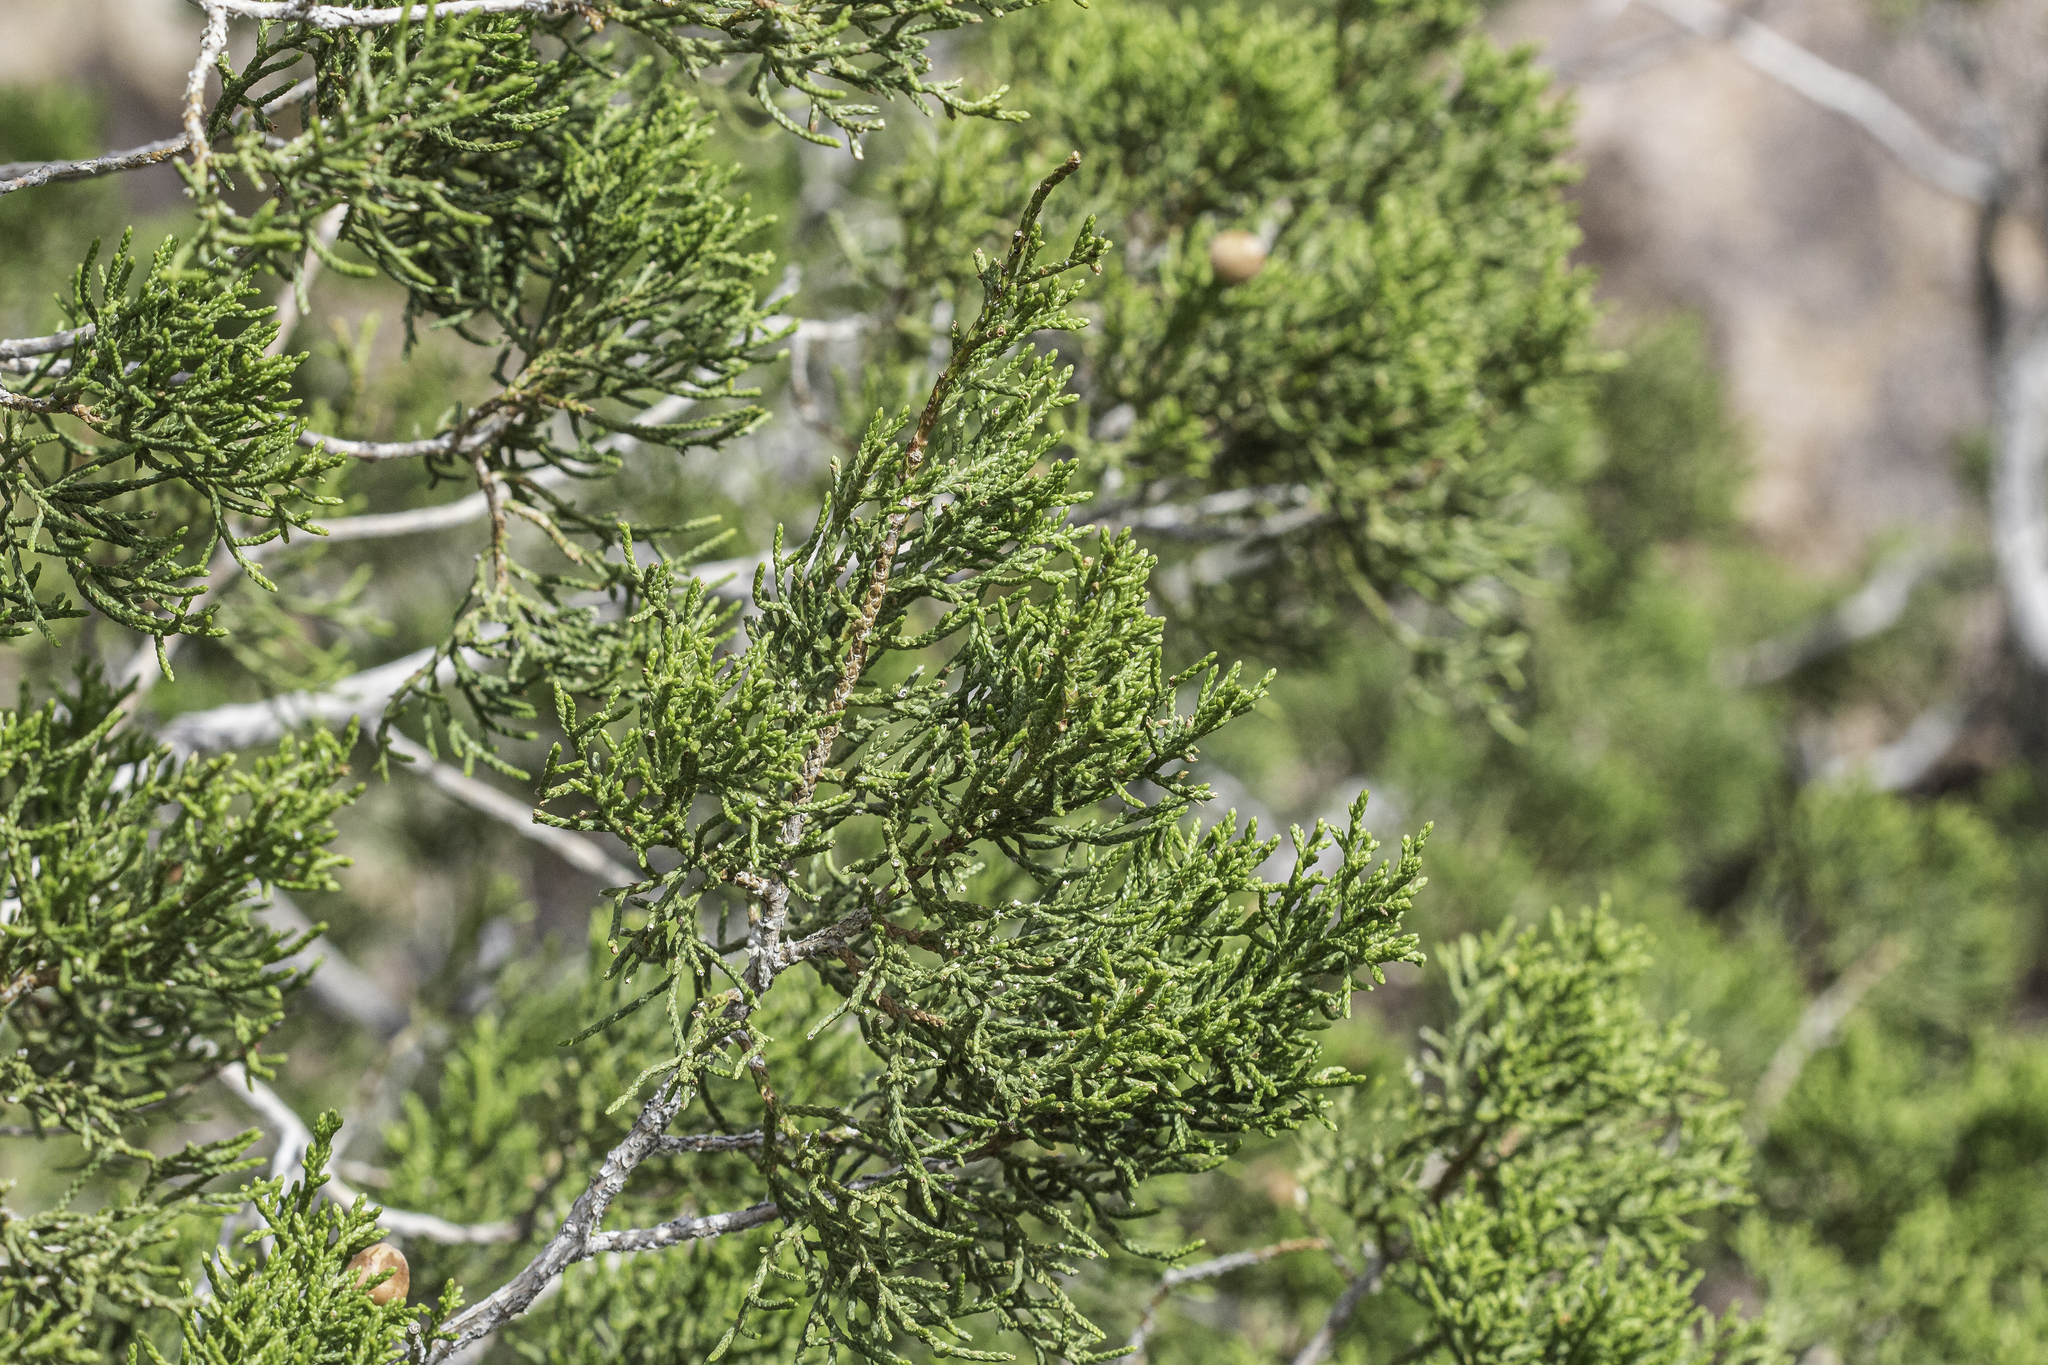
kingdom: Plantae
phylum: Tracheophyta
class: Pinopsida
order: Pinales
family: Cupressaceae
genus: Juniperus
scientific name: Juniperus arizonica
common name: Arizona juniper
